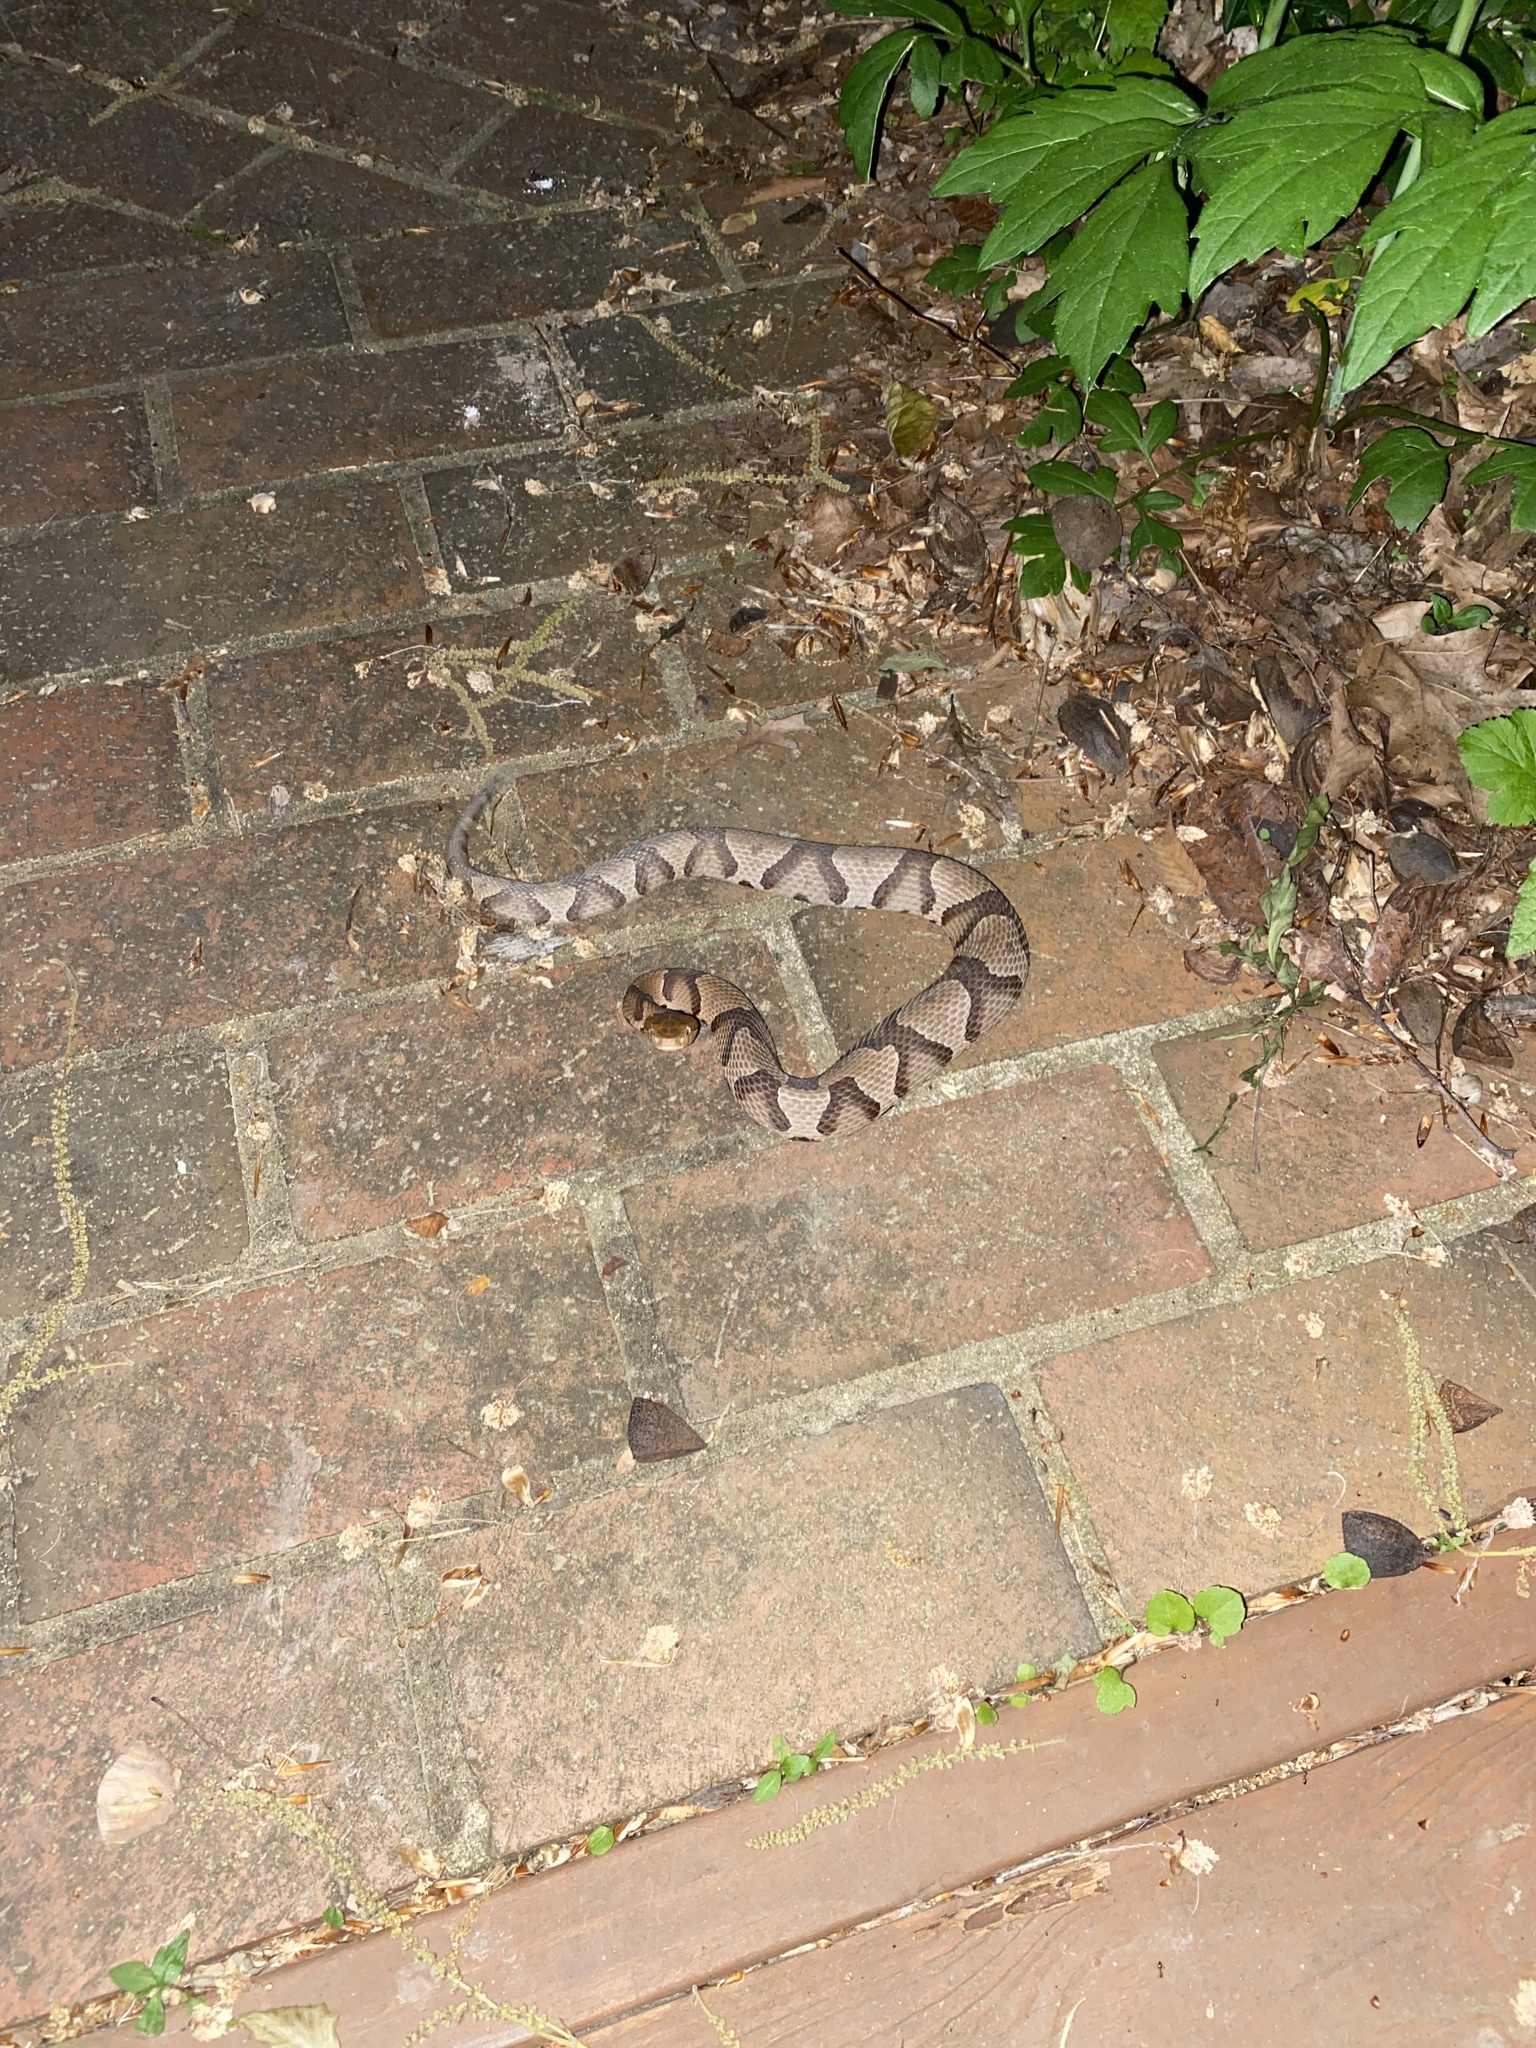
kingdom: Animalia
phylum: Chordata
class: Squamata
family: Viperidae
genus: Agkistrodon
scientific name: Agkistrodon contortrix
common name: Northern copperhead
